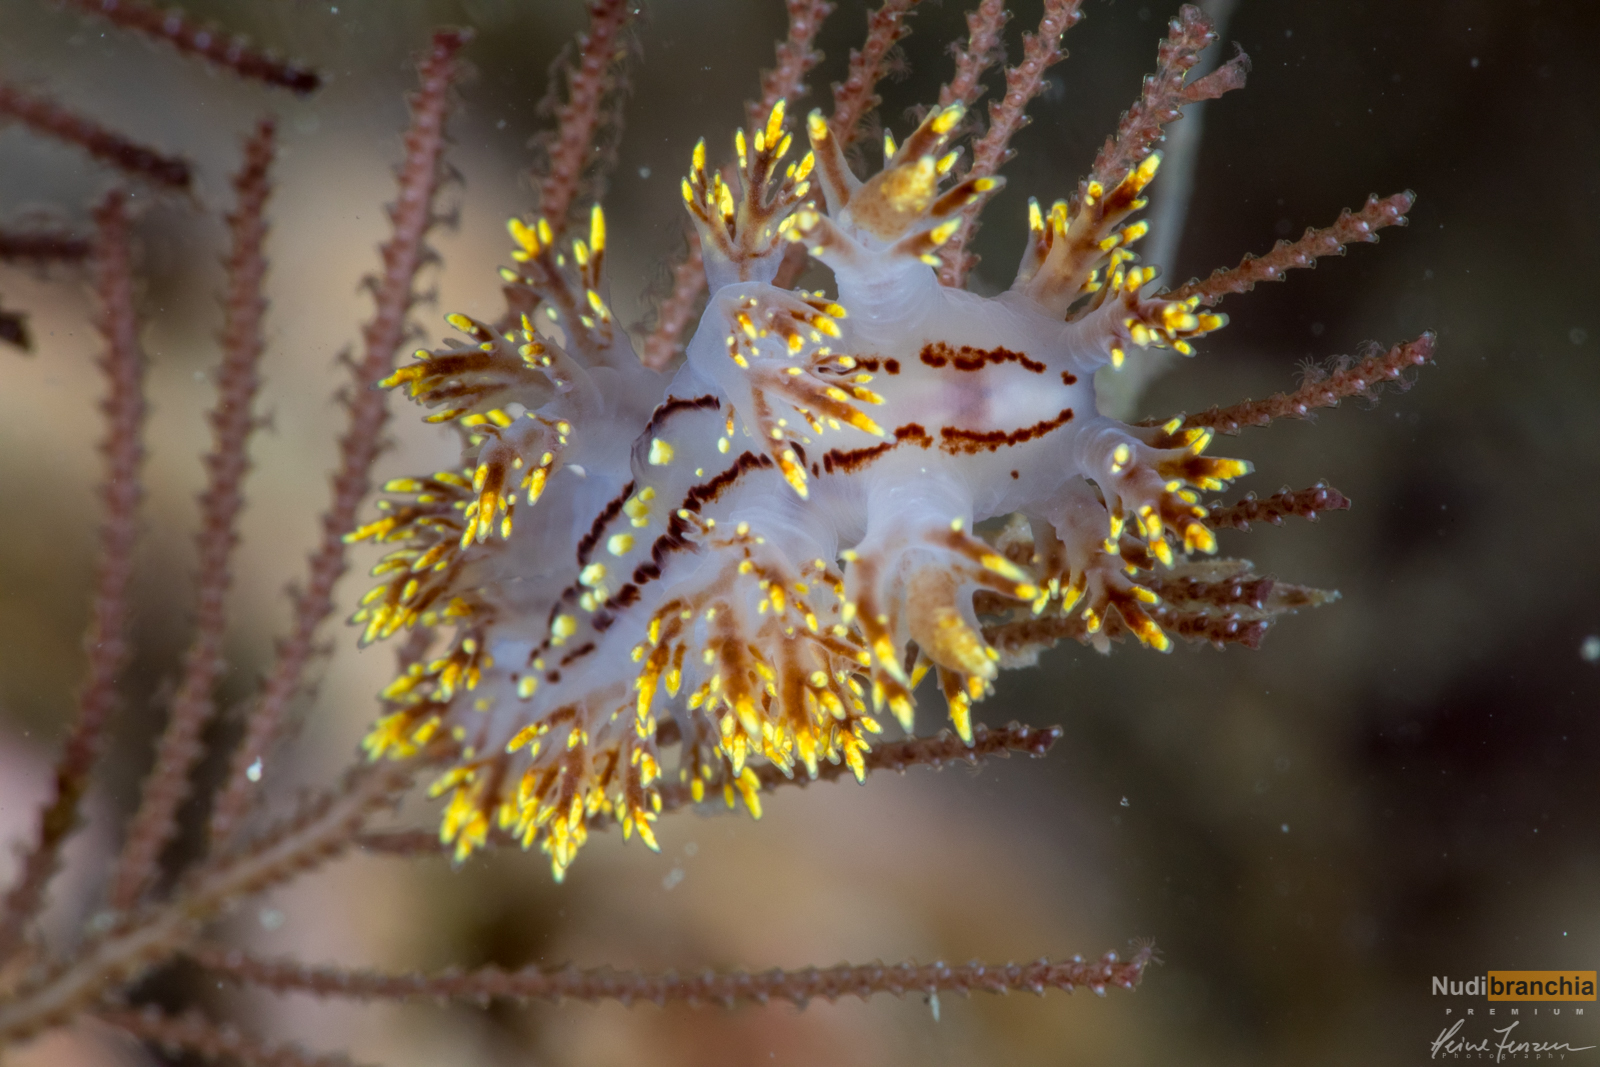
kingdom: Animalia
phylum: Mollusca
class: Gastropoda
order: Nudibranchia
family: Dendronotidae
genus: Dendronotus
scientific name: Dendronotus yrjargul
